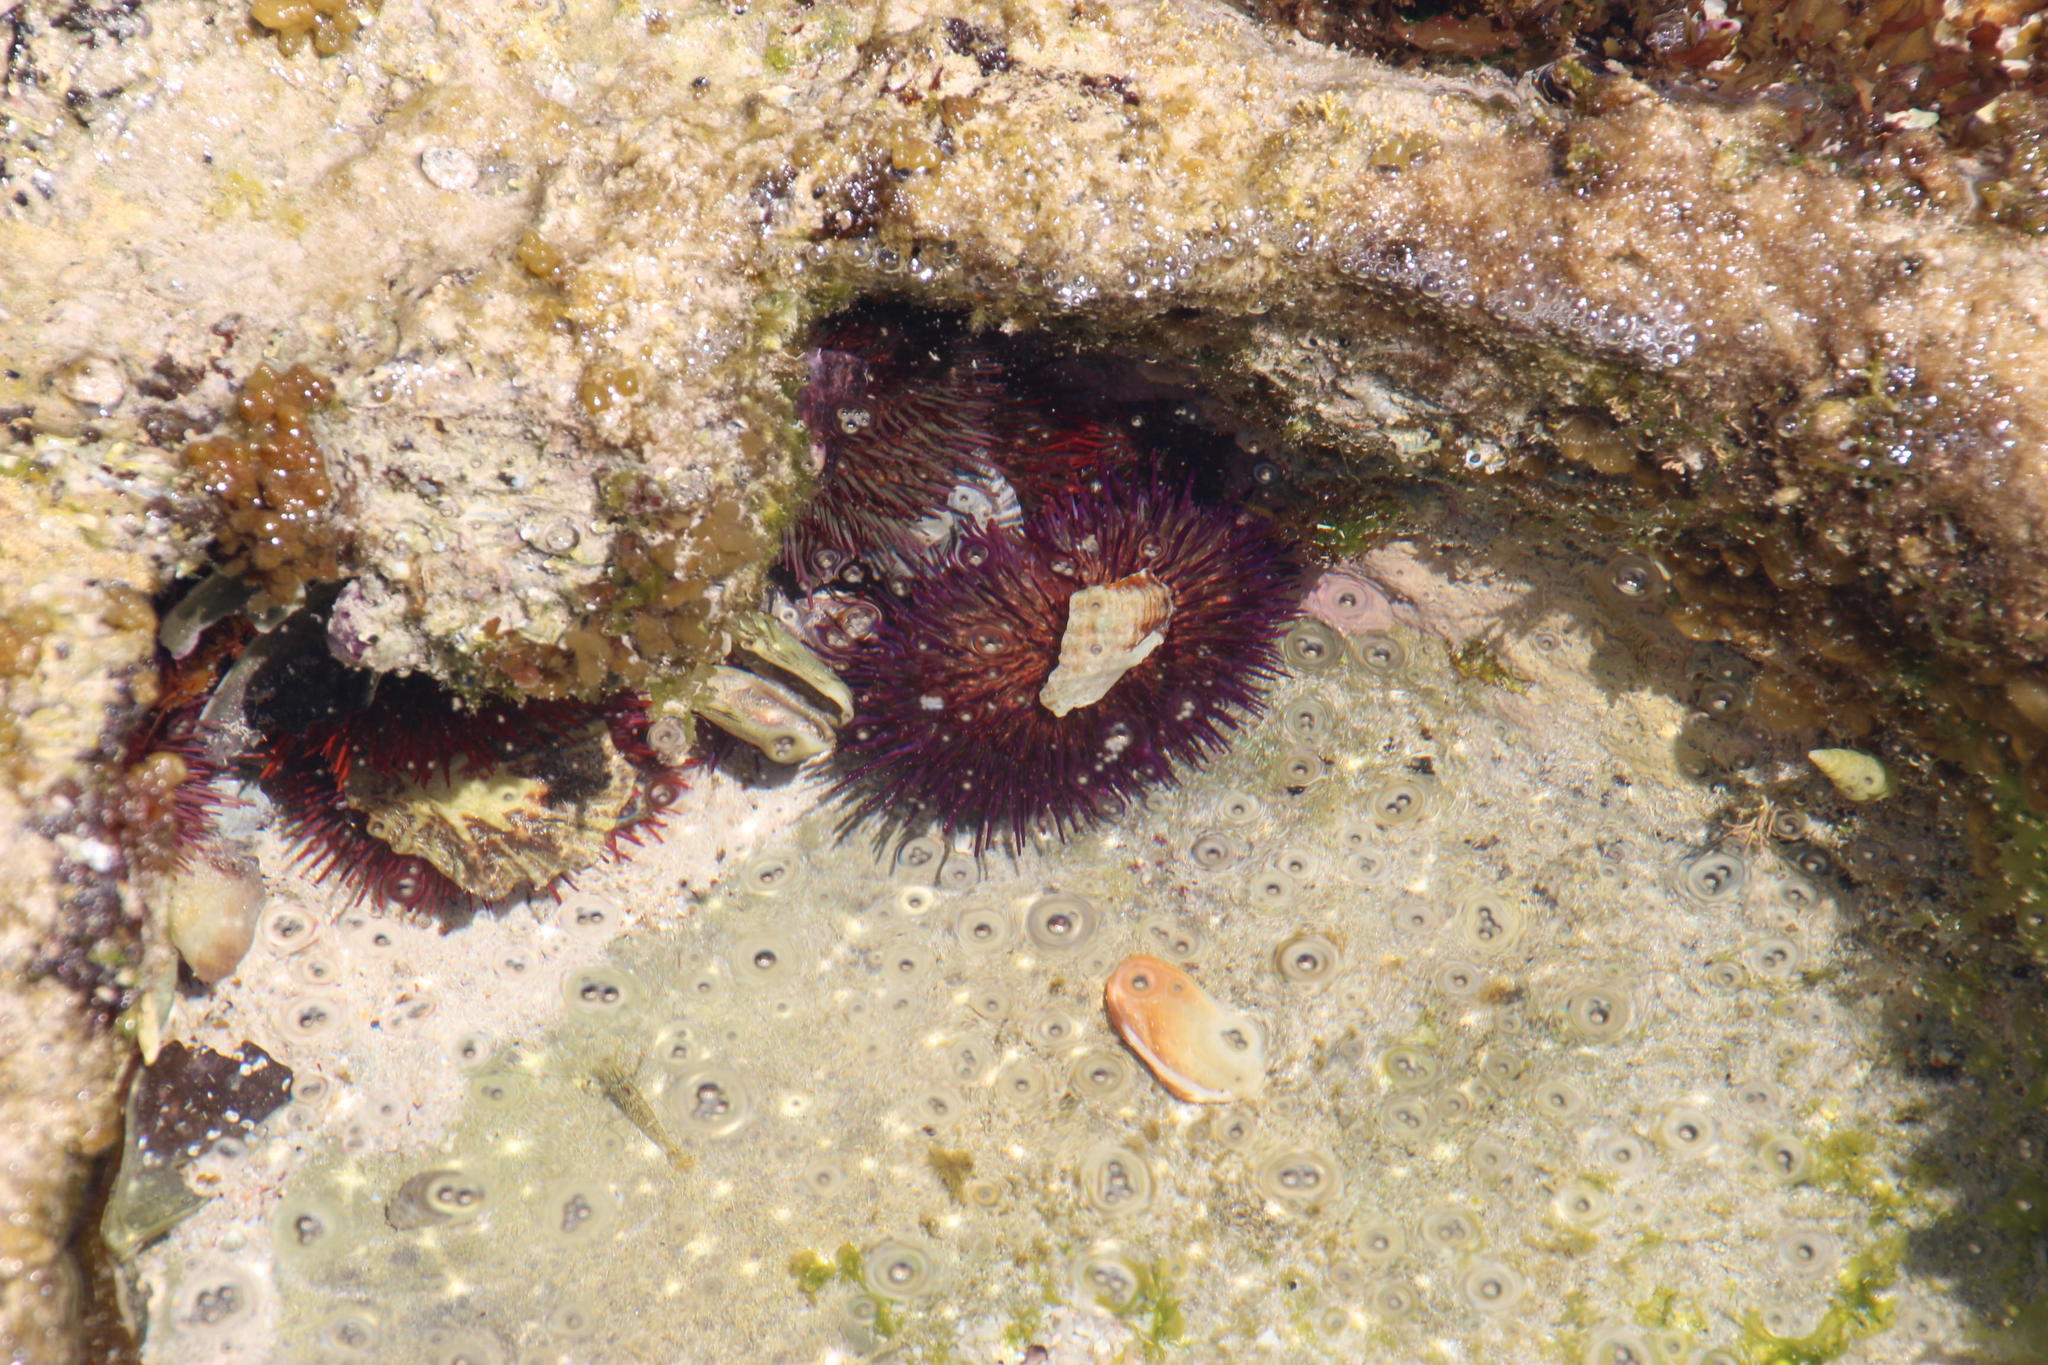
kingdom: Animalia
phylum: Echinodermata
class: Echinoidea
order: Camarodonta
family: Parechinidae
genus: Parechinus
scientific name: Parechinus angulosus
